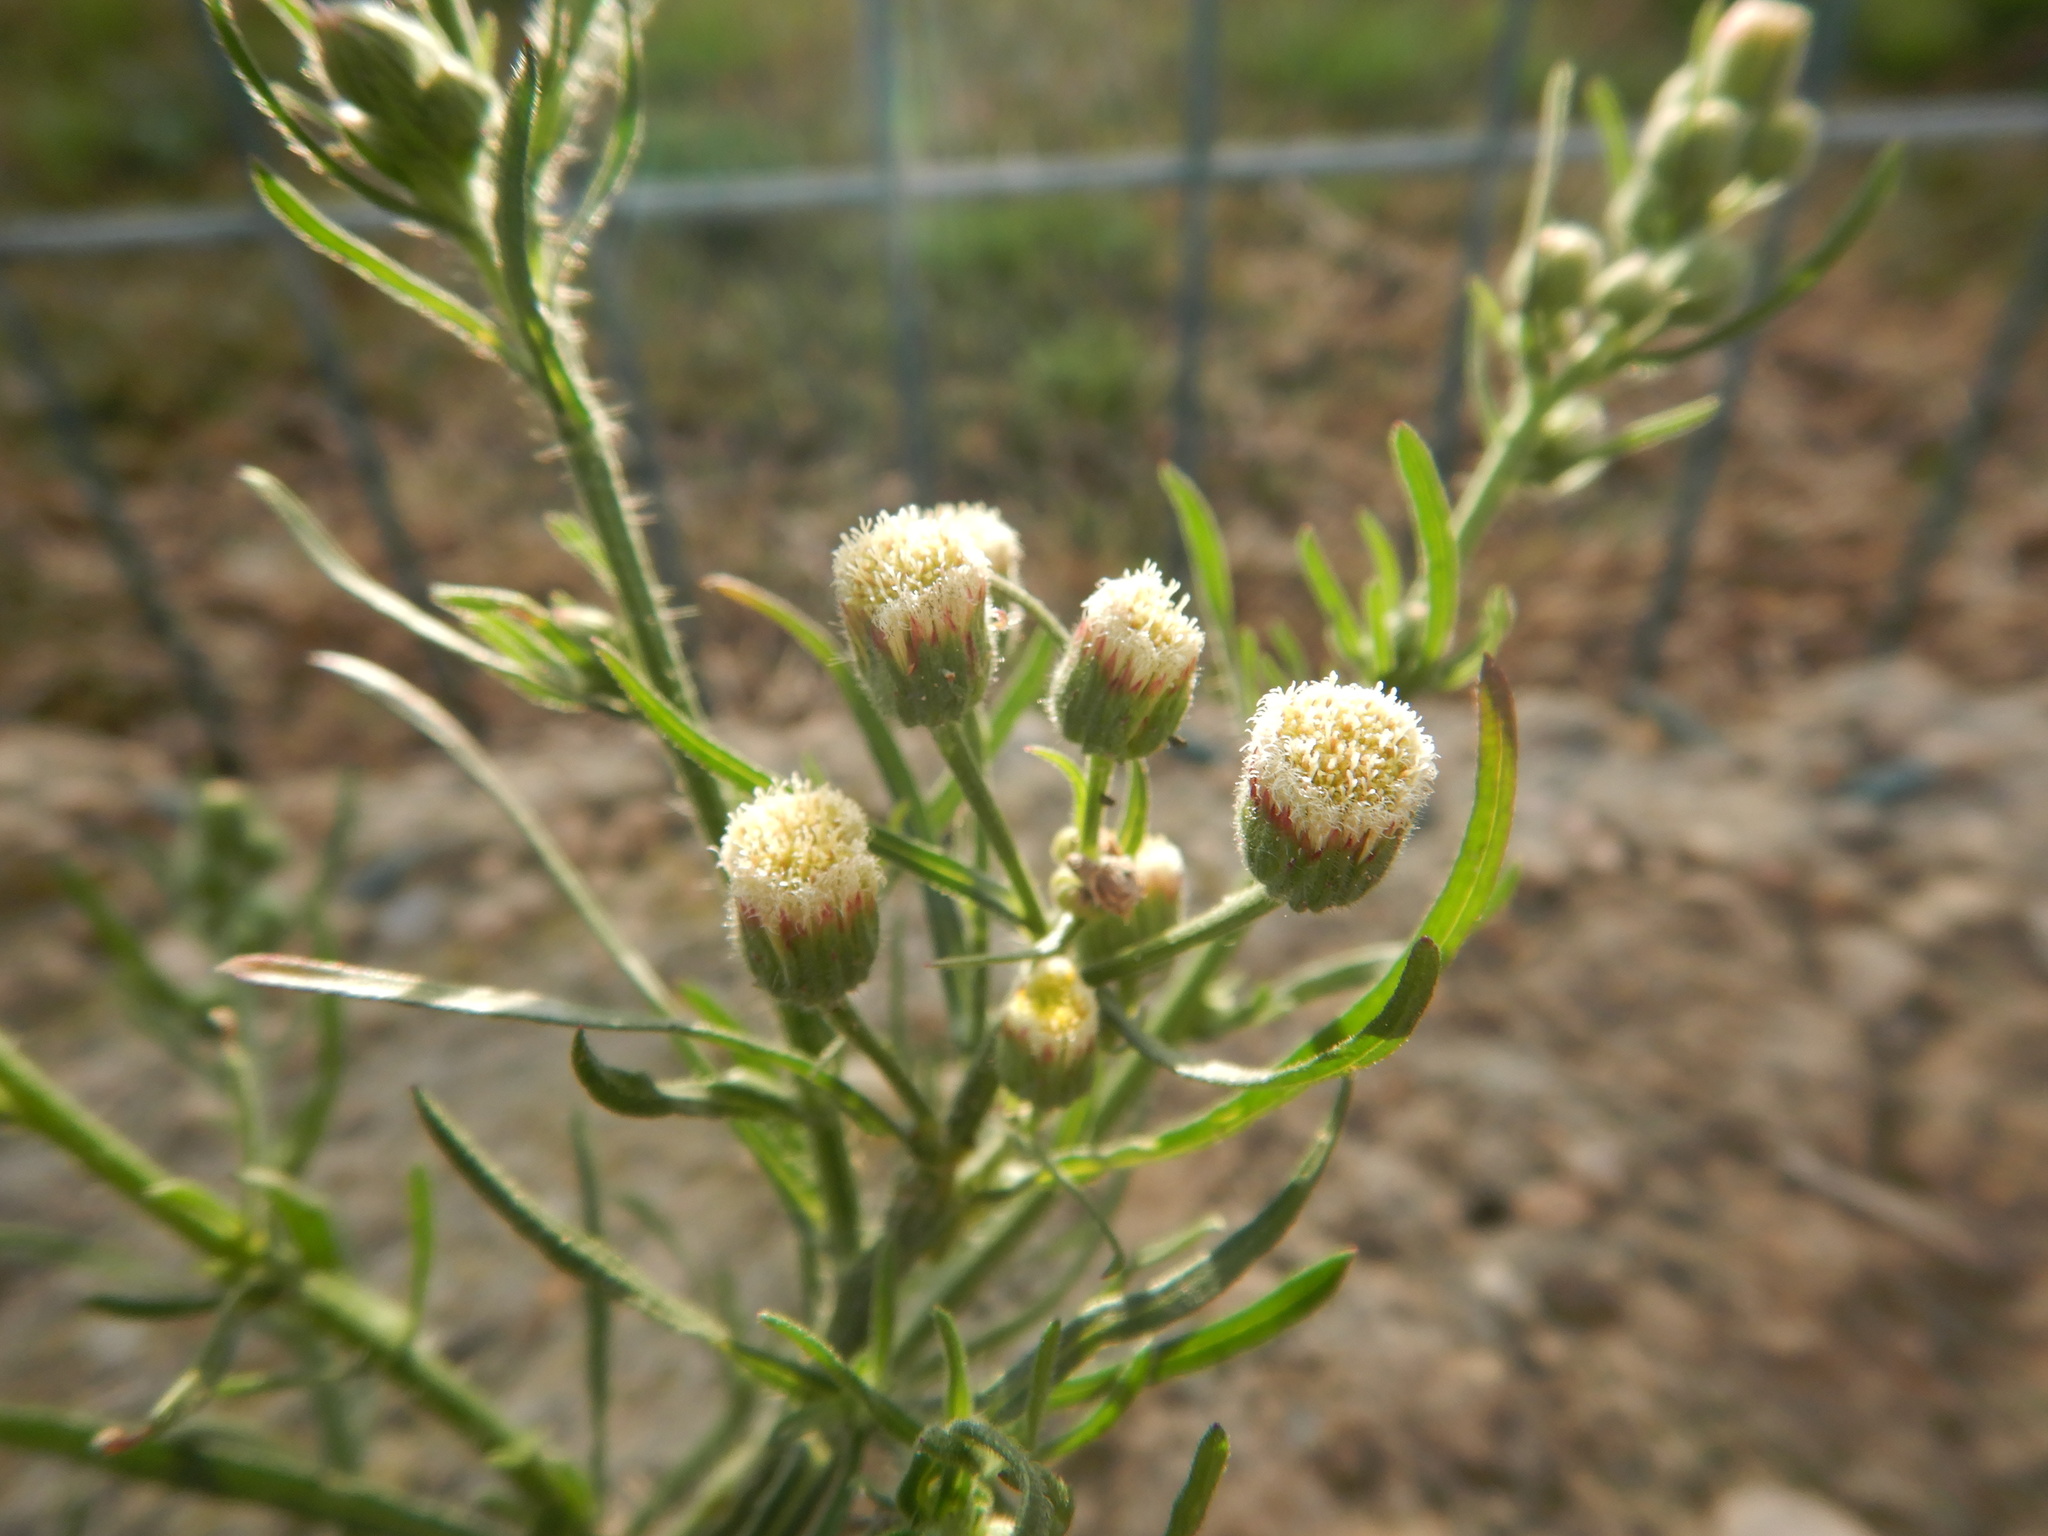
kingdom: Plantae
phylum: Tracheophyta
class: Magnoliopsida
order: Asterales
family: Asteraceae
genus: Erigeron
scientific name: Erigeron bonariensis
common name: Argentine fleabane
